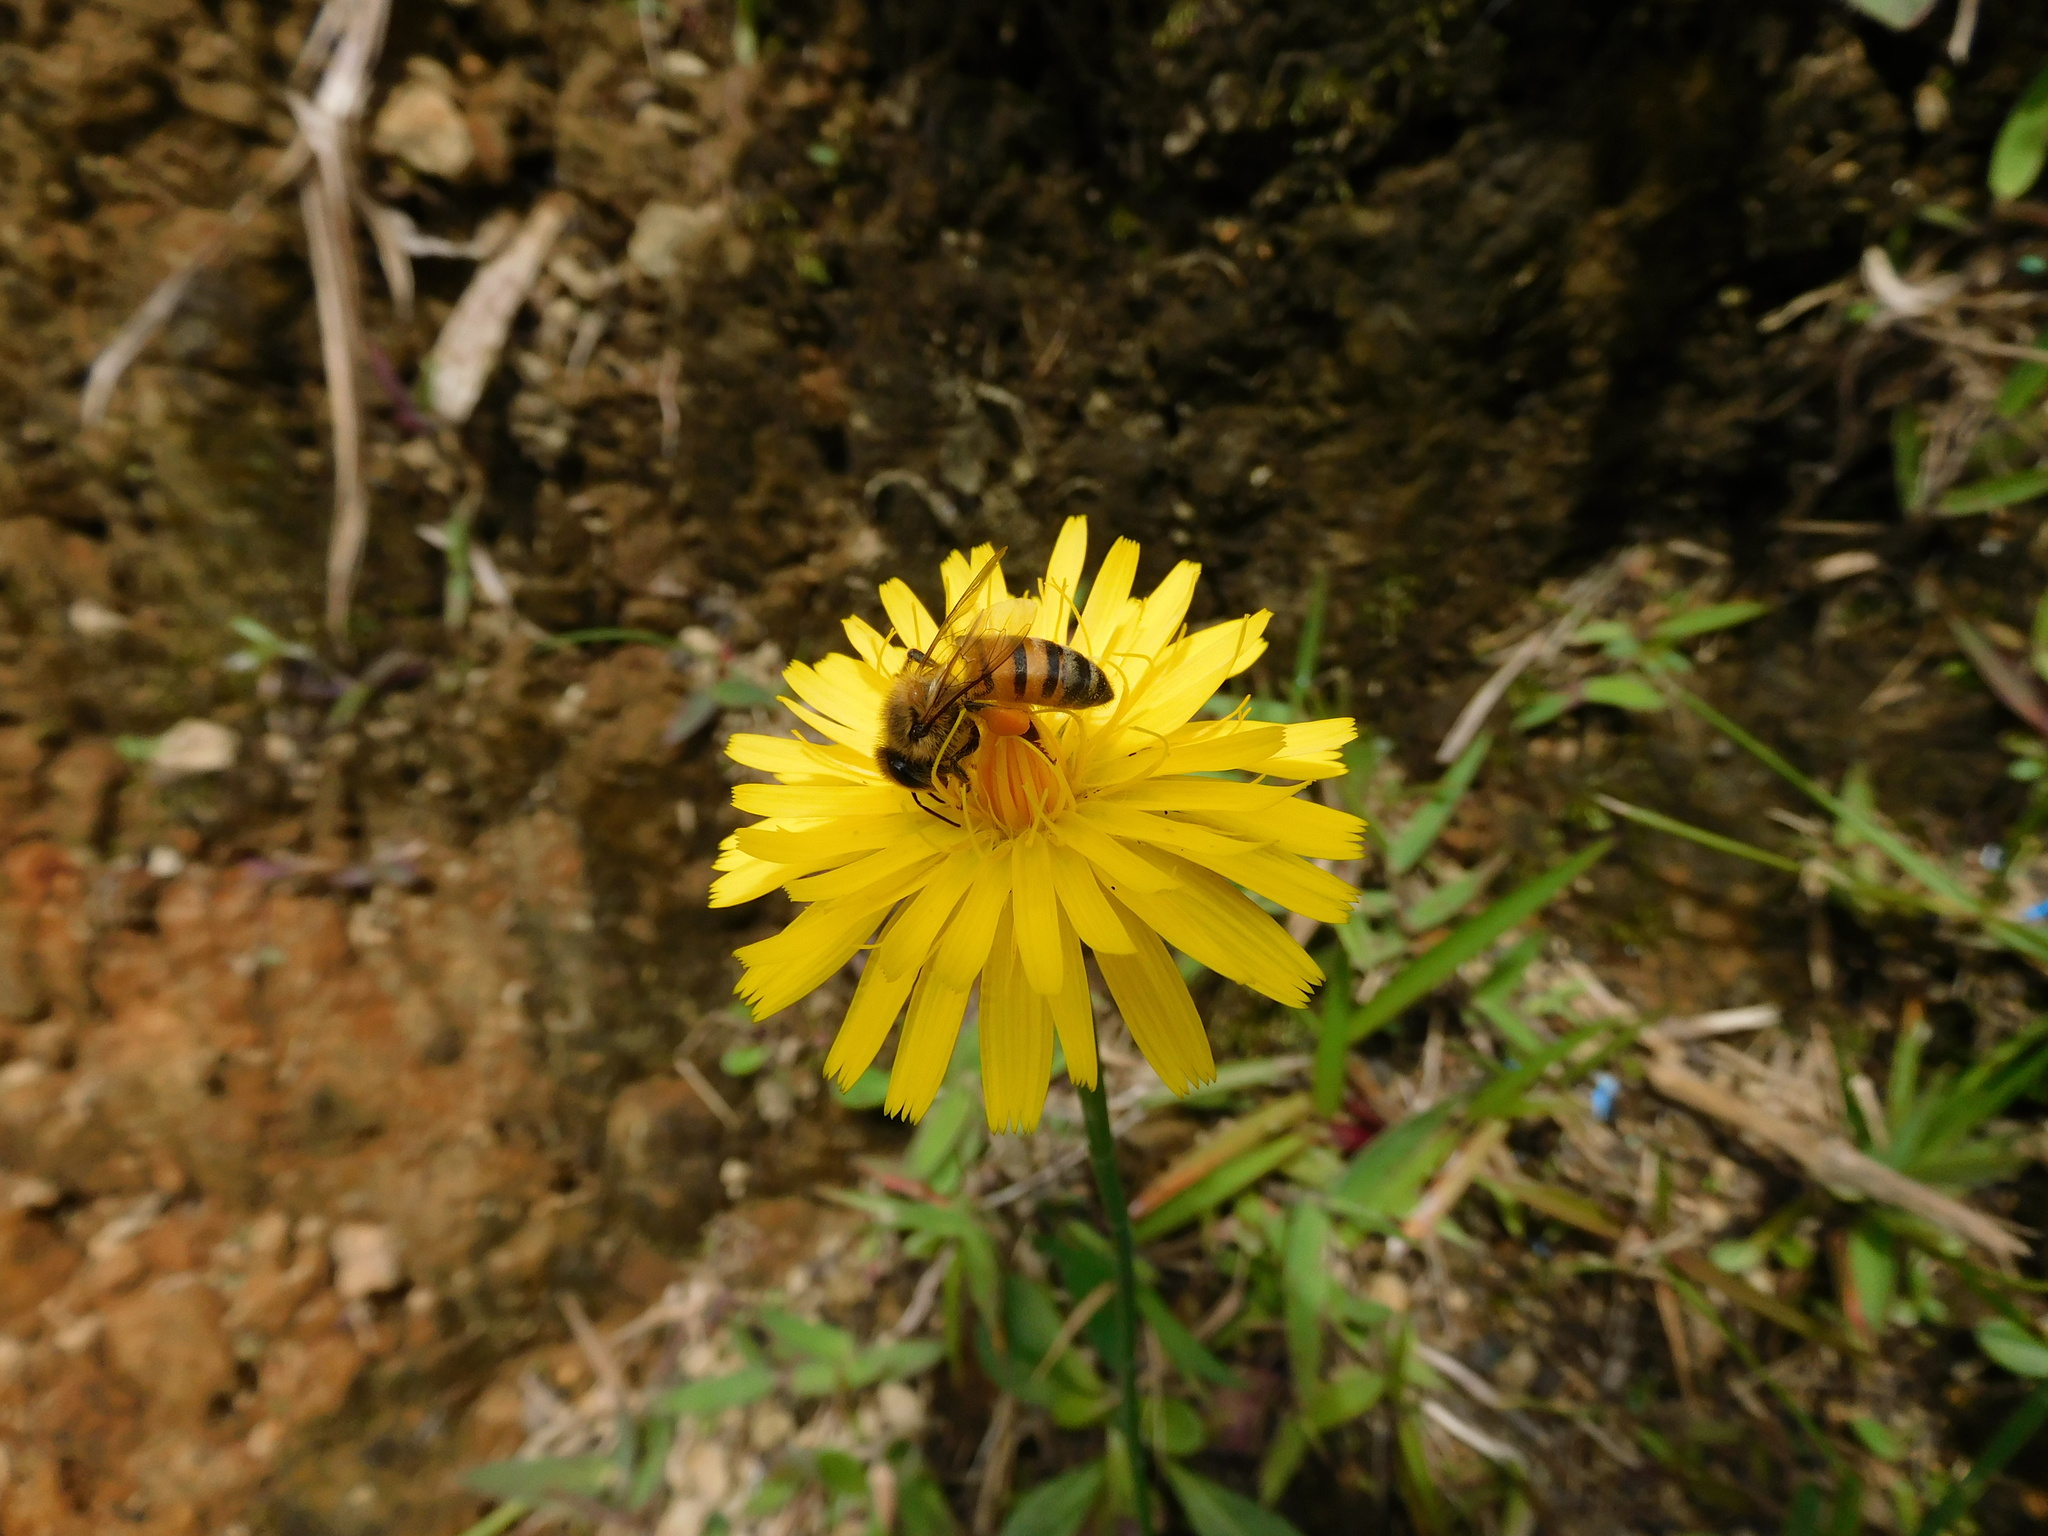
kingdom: Animalia
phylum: Arthropoda
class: Insecta
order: Hymenoptera
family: Apidae
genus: Apis
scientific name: Apis mellifera
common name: Honey bee
